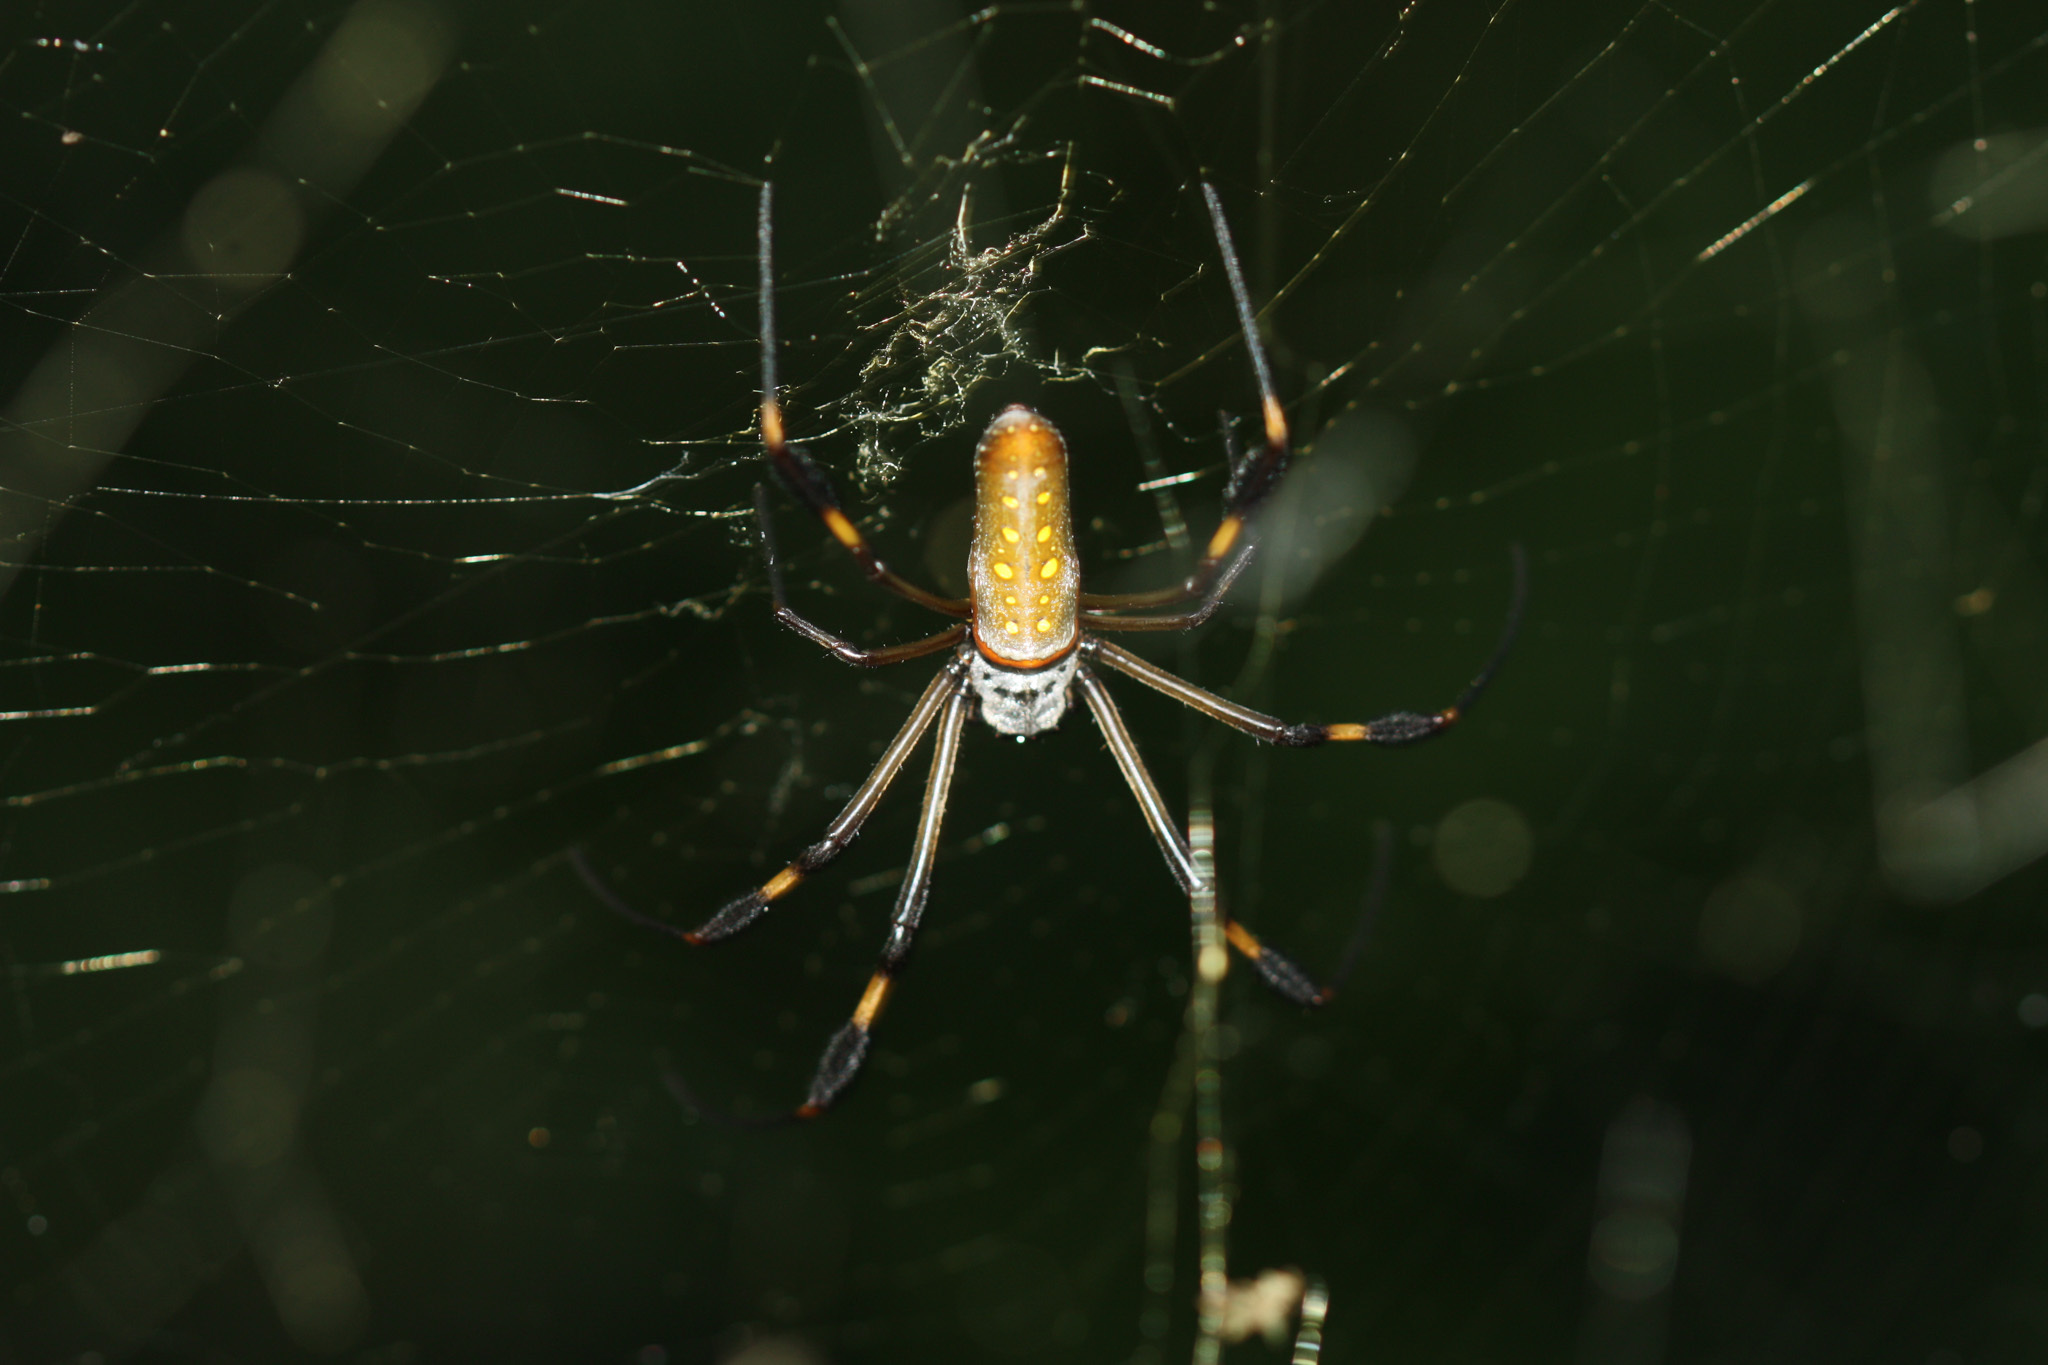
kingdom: Animalia
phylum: Arthropoda
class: Arachnida
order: Araneae
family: Araneidae
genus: Trichonephila
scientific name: Trichonephila clavipes
